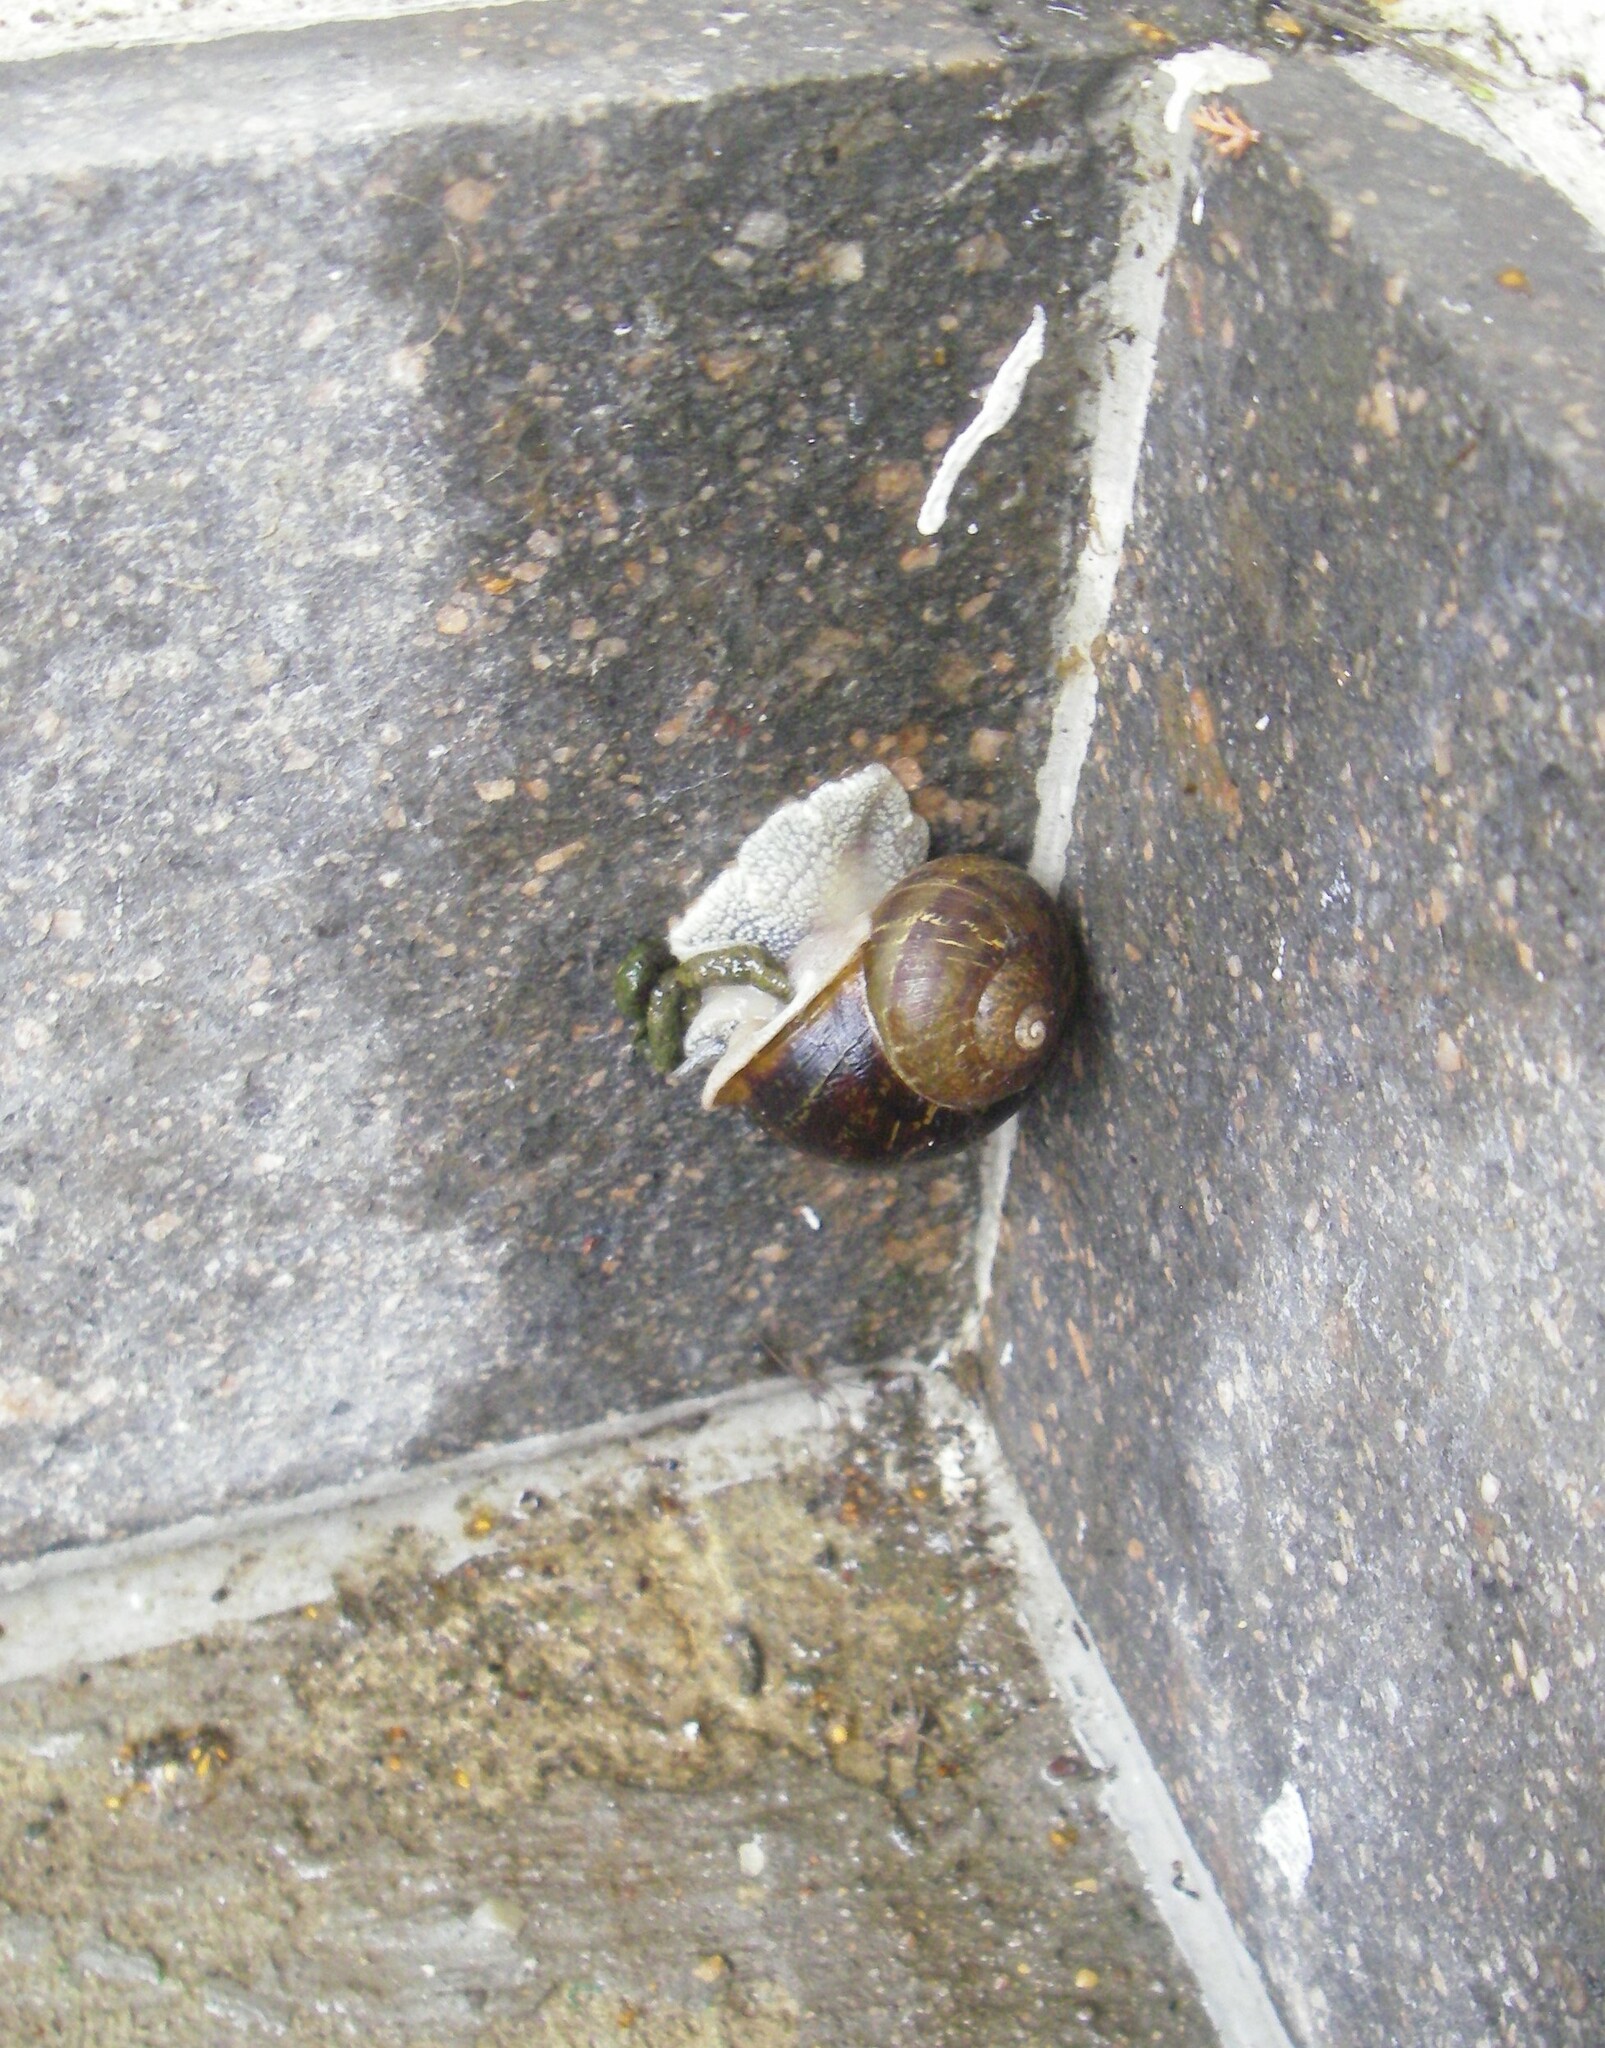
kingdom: Animalia
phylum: Mollusca
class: Gastropoda
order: Stylommatophora
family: Helicidae
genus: Cornu
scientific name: Cornu aspersum
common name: Brown garden snail
